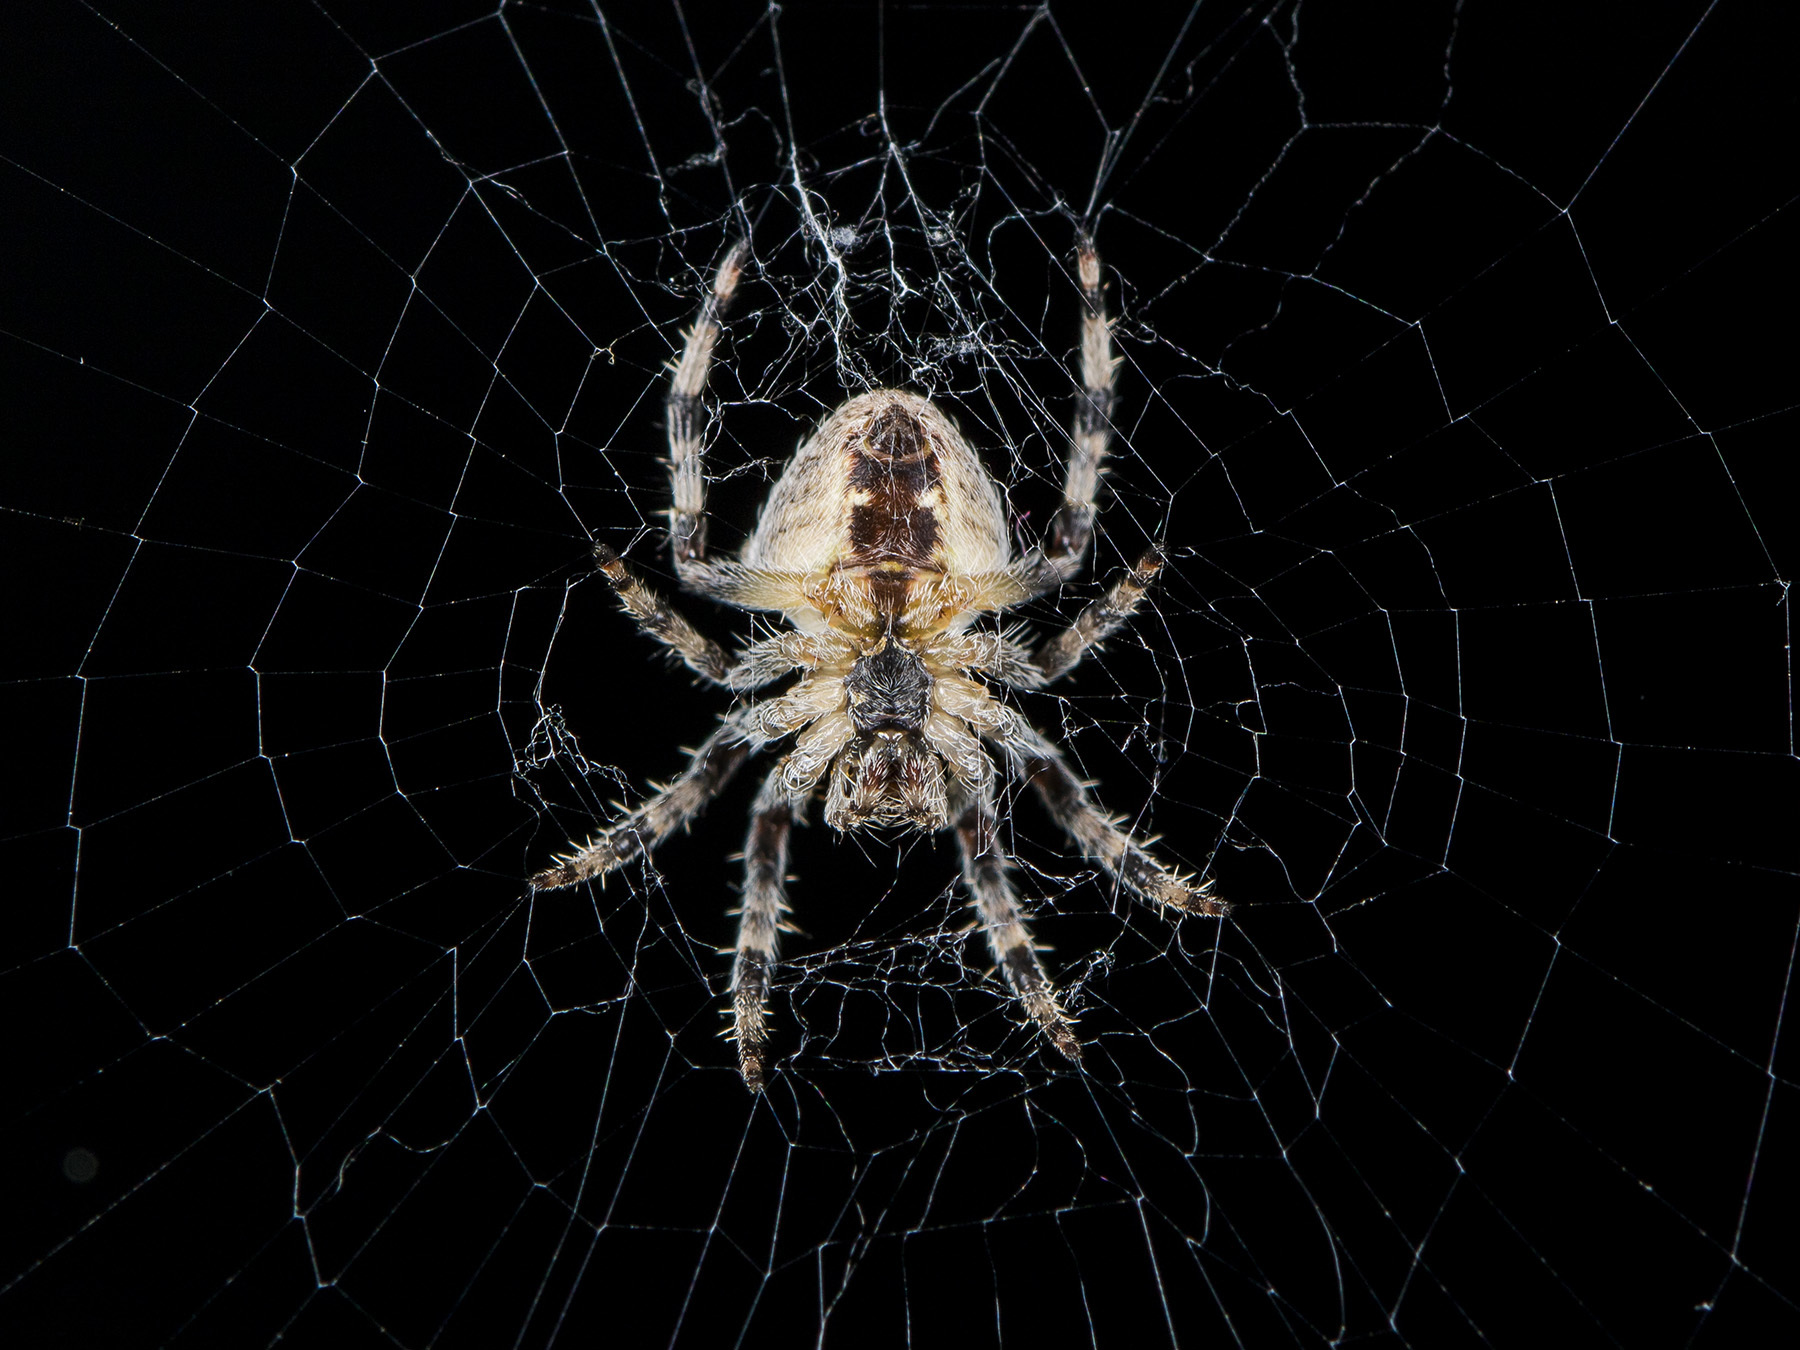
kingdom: Animalia
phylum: Arthropoda
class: Arachnida
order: Araneae
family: Araneidae
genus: Araneus
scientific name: Araneus tartaricus
